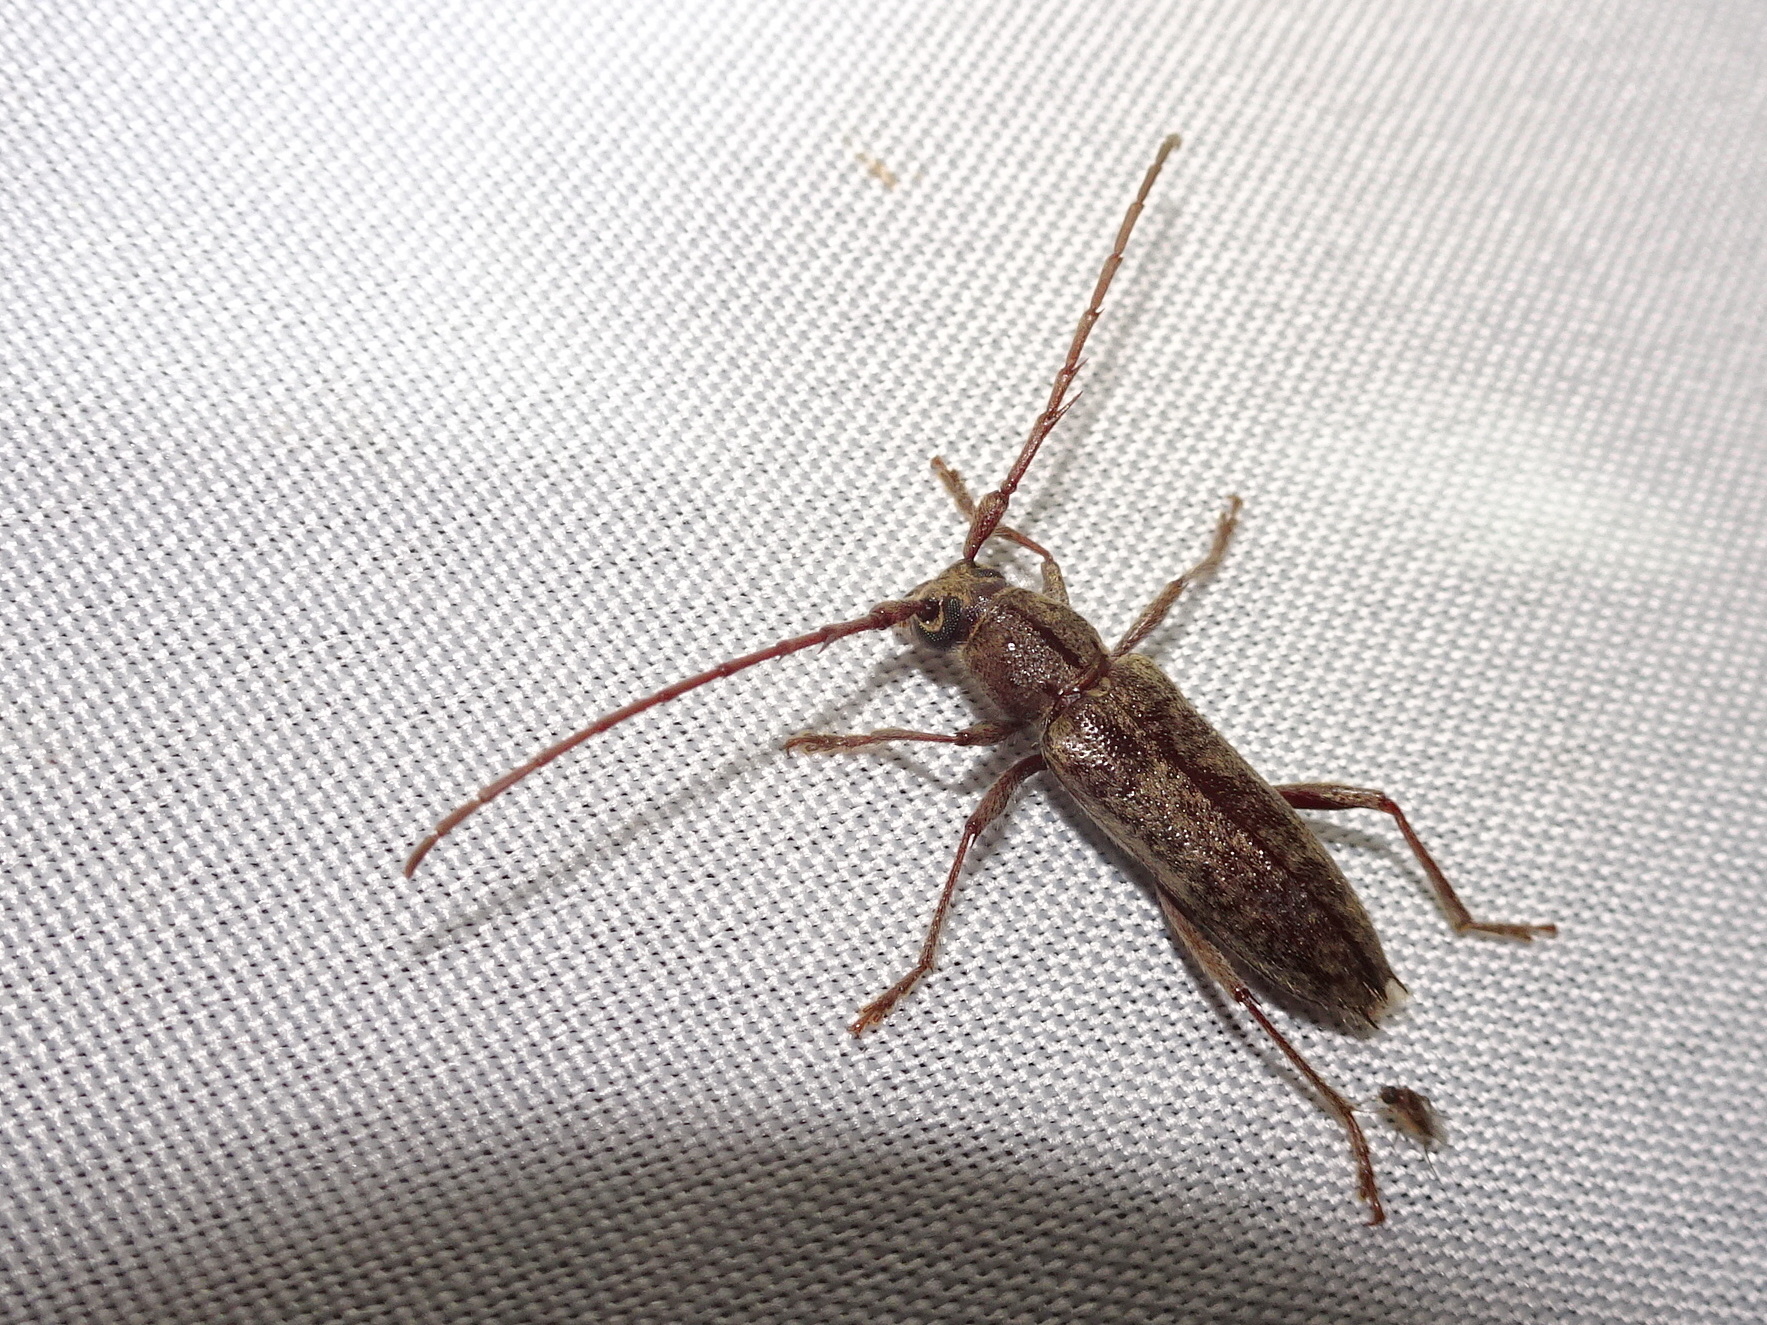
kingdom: Animalia
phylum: Arthropoda
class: Insecta
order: Coleoptera
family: Cerambycidae
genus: Elaphidion
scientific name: Elaphidion mucronatum
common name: Spined oak borer
